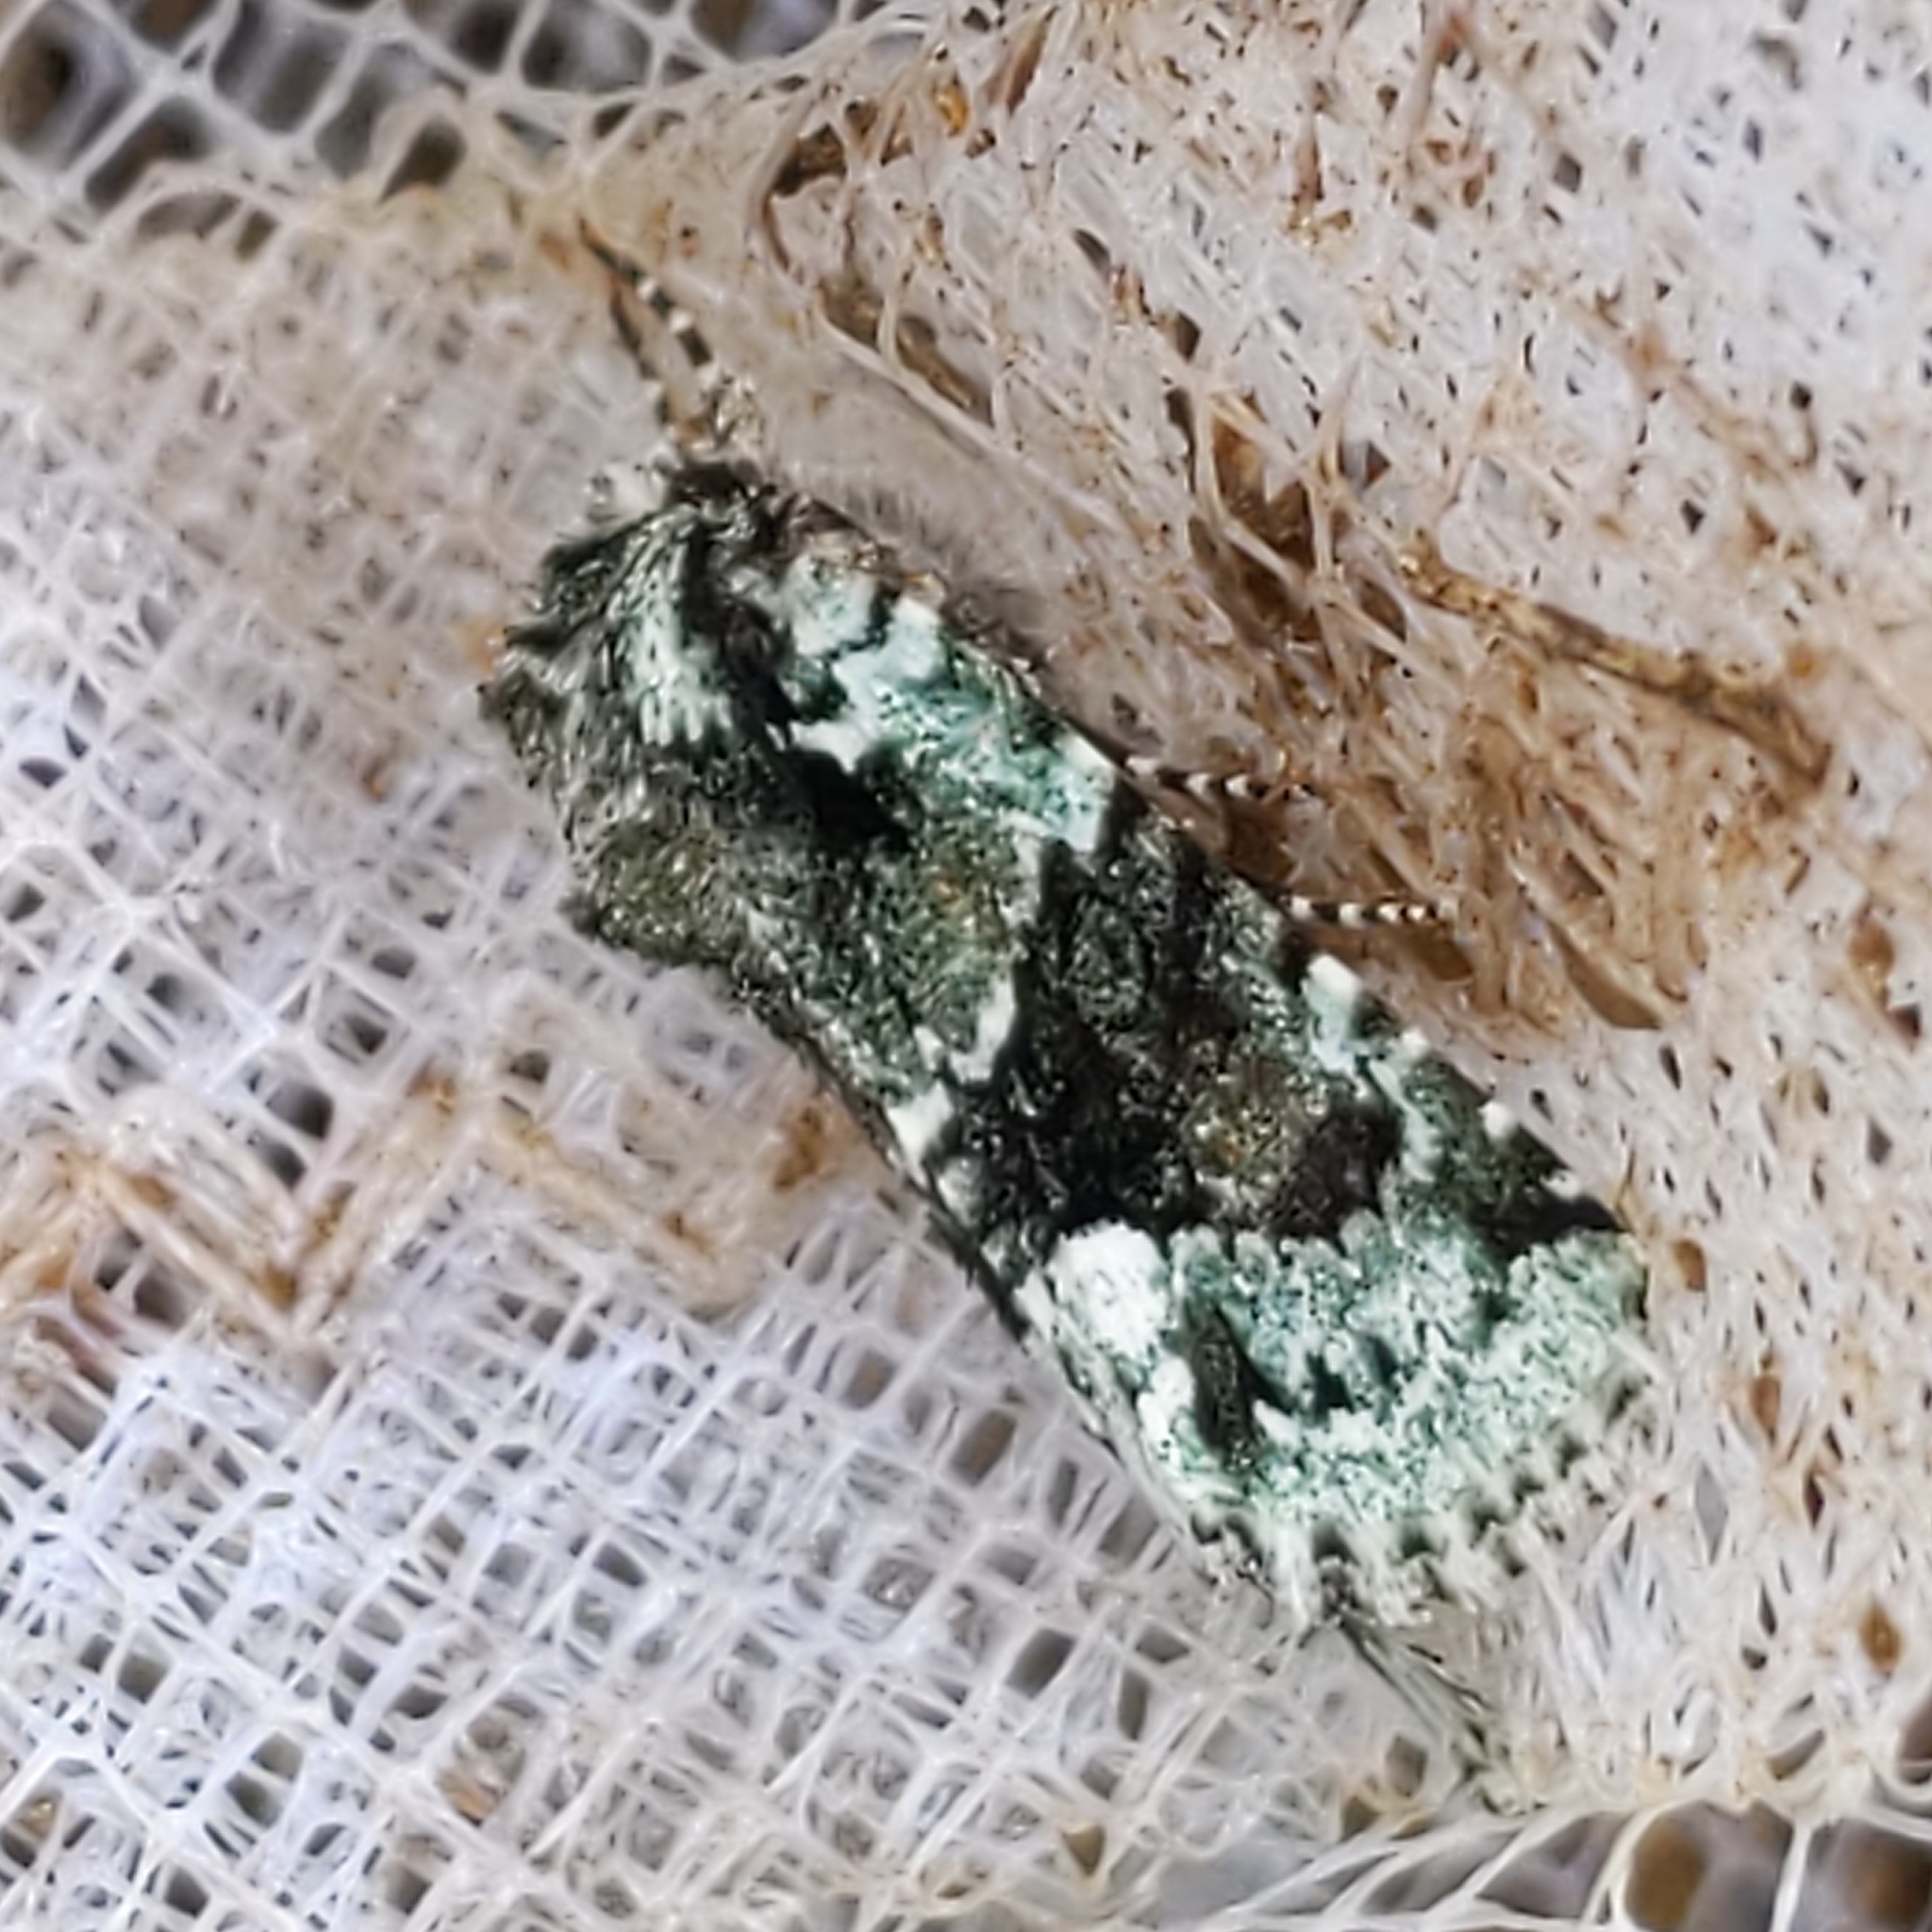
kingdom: Animalia
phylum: Arthropoda
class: Insecta
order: Lepidoptera
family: Noctuidae
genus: Lacinipolia
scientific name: Lacinipolia explicata
